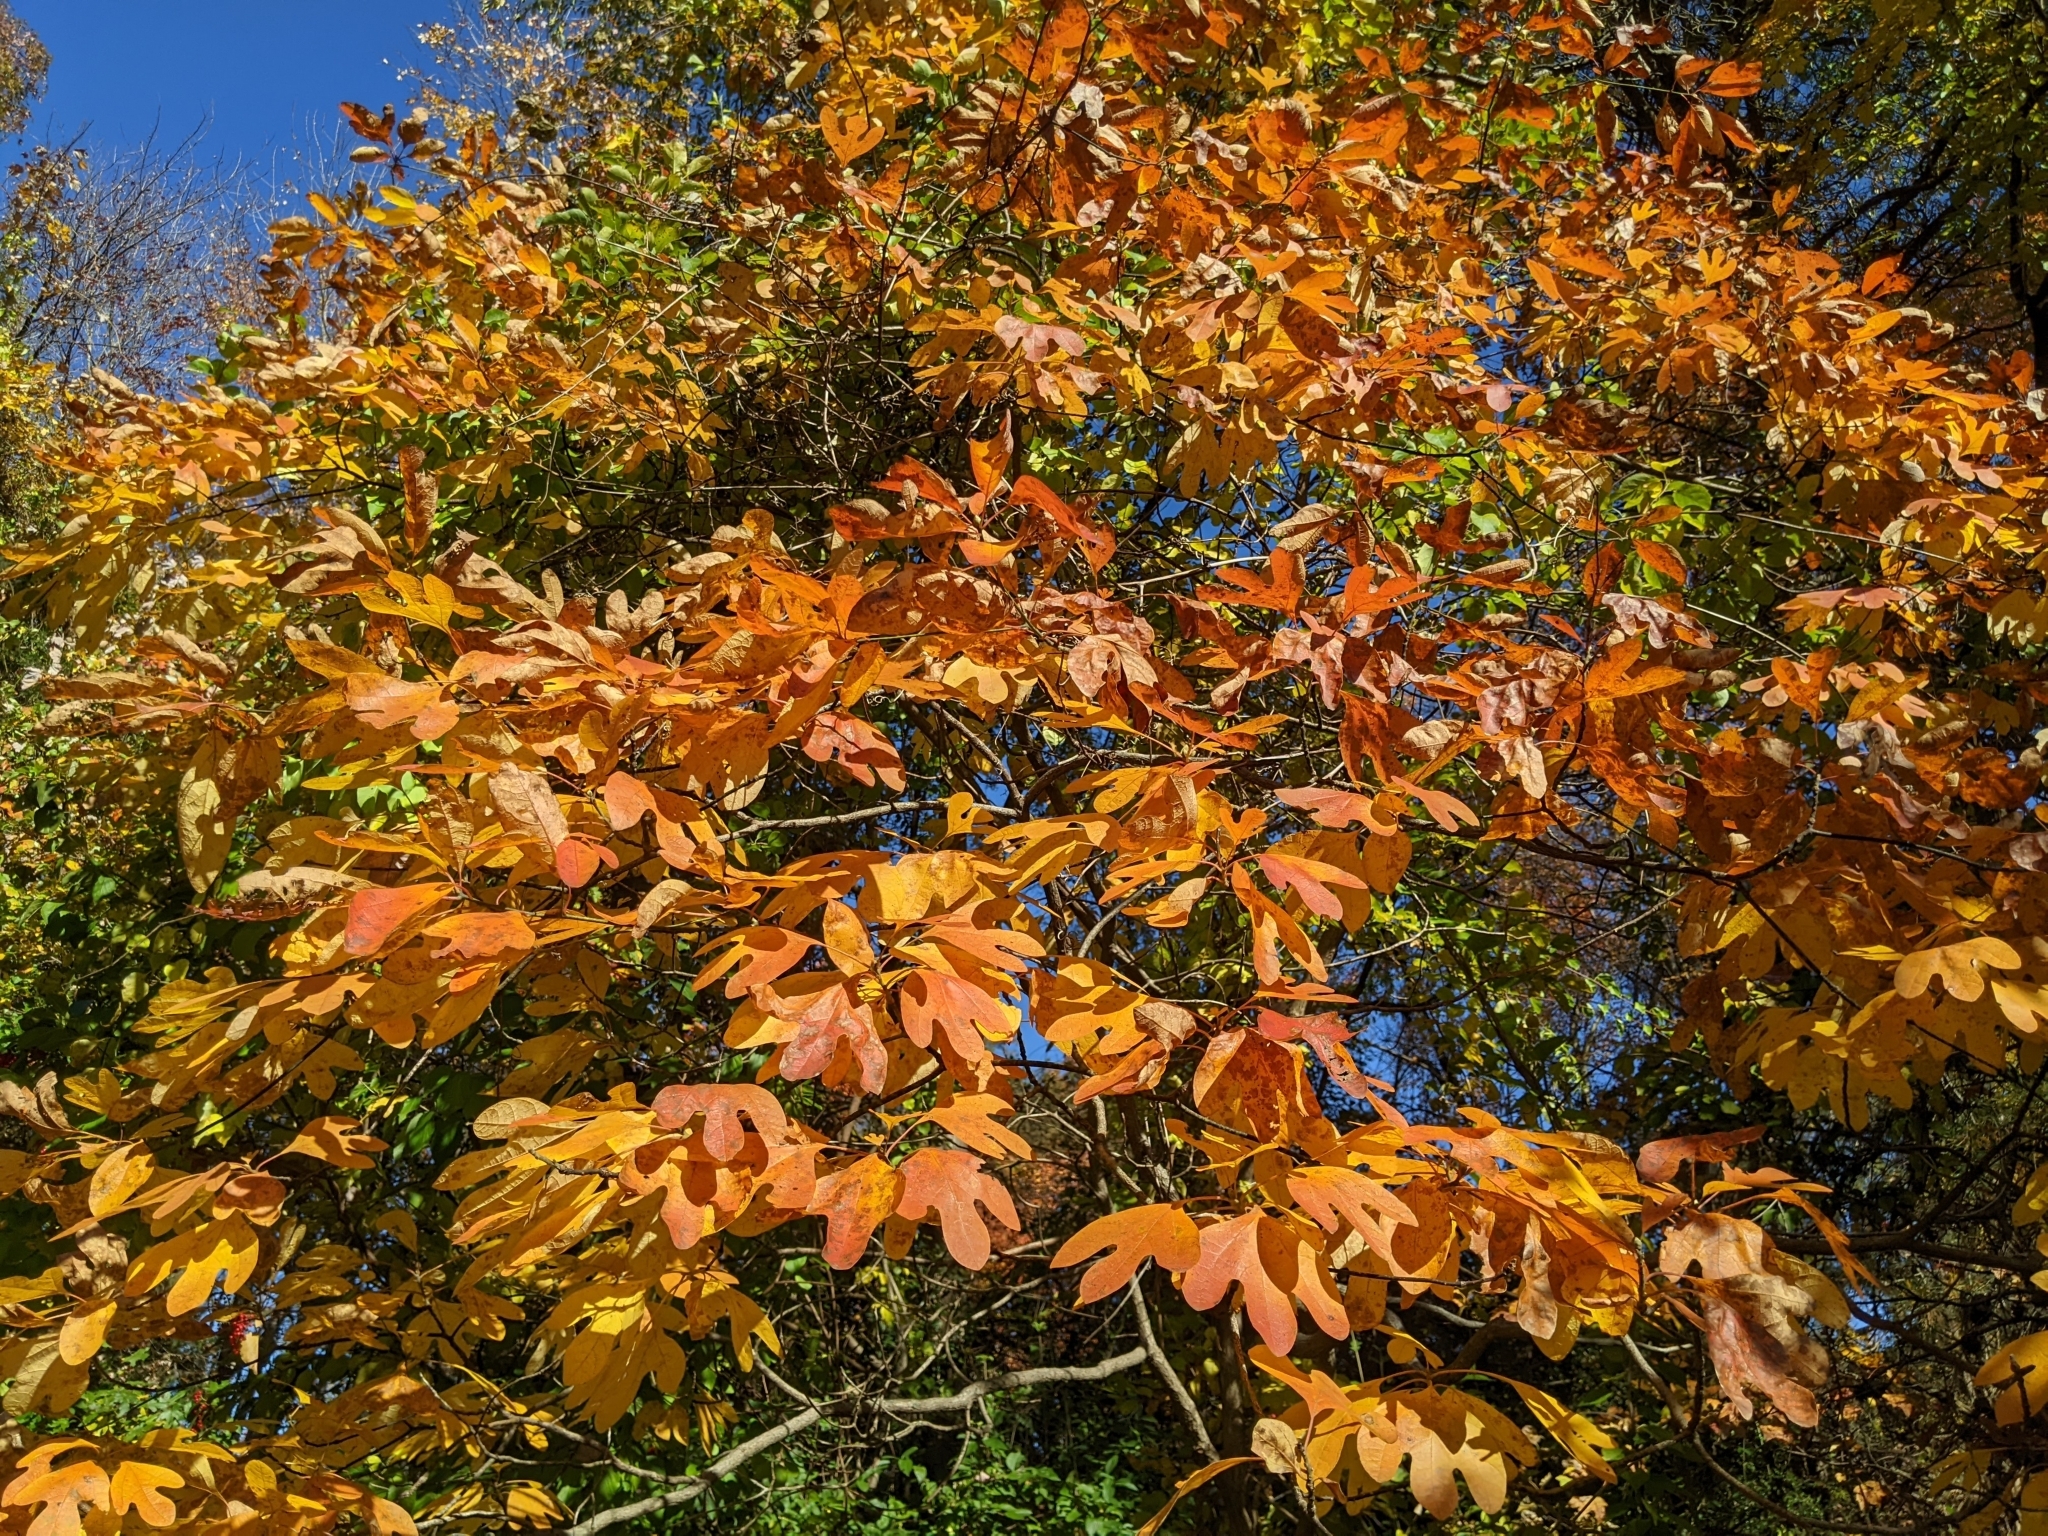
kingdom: Plantae
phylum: Tracheophyta
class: Magnoliopsida
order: Laurales
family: Lauraceae
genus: Sassafras
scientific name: Sassafras albidum
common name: Sassafras
